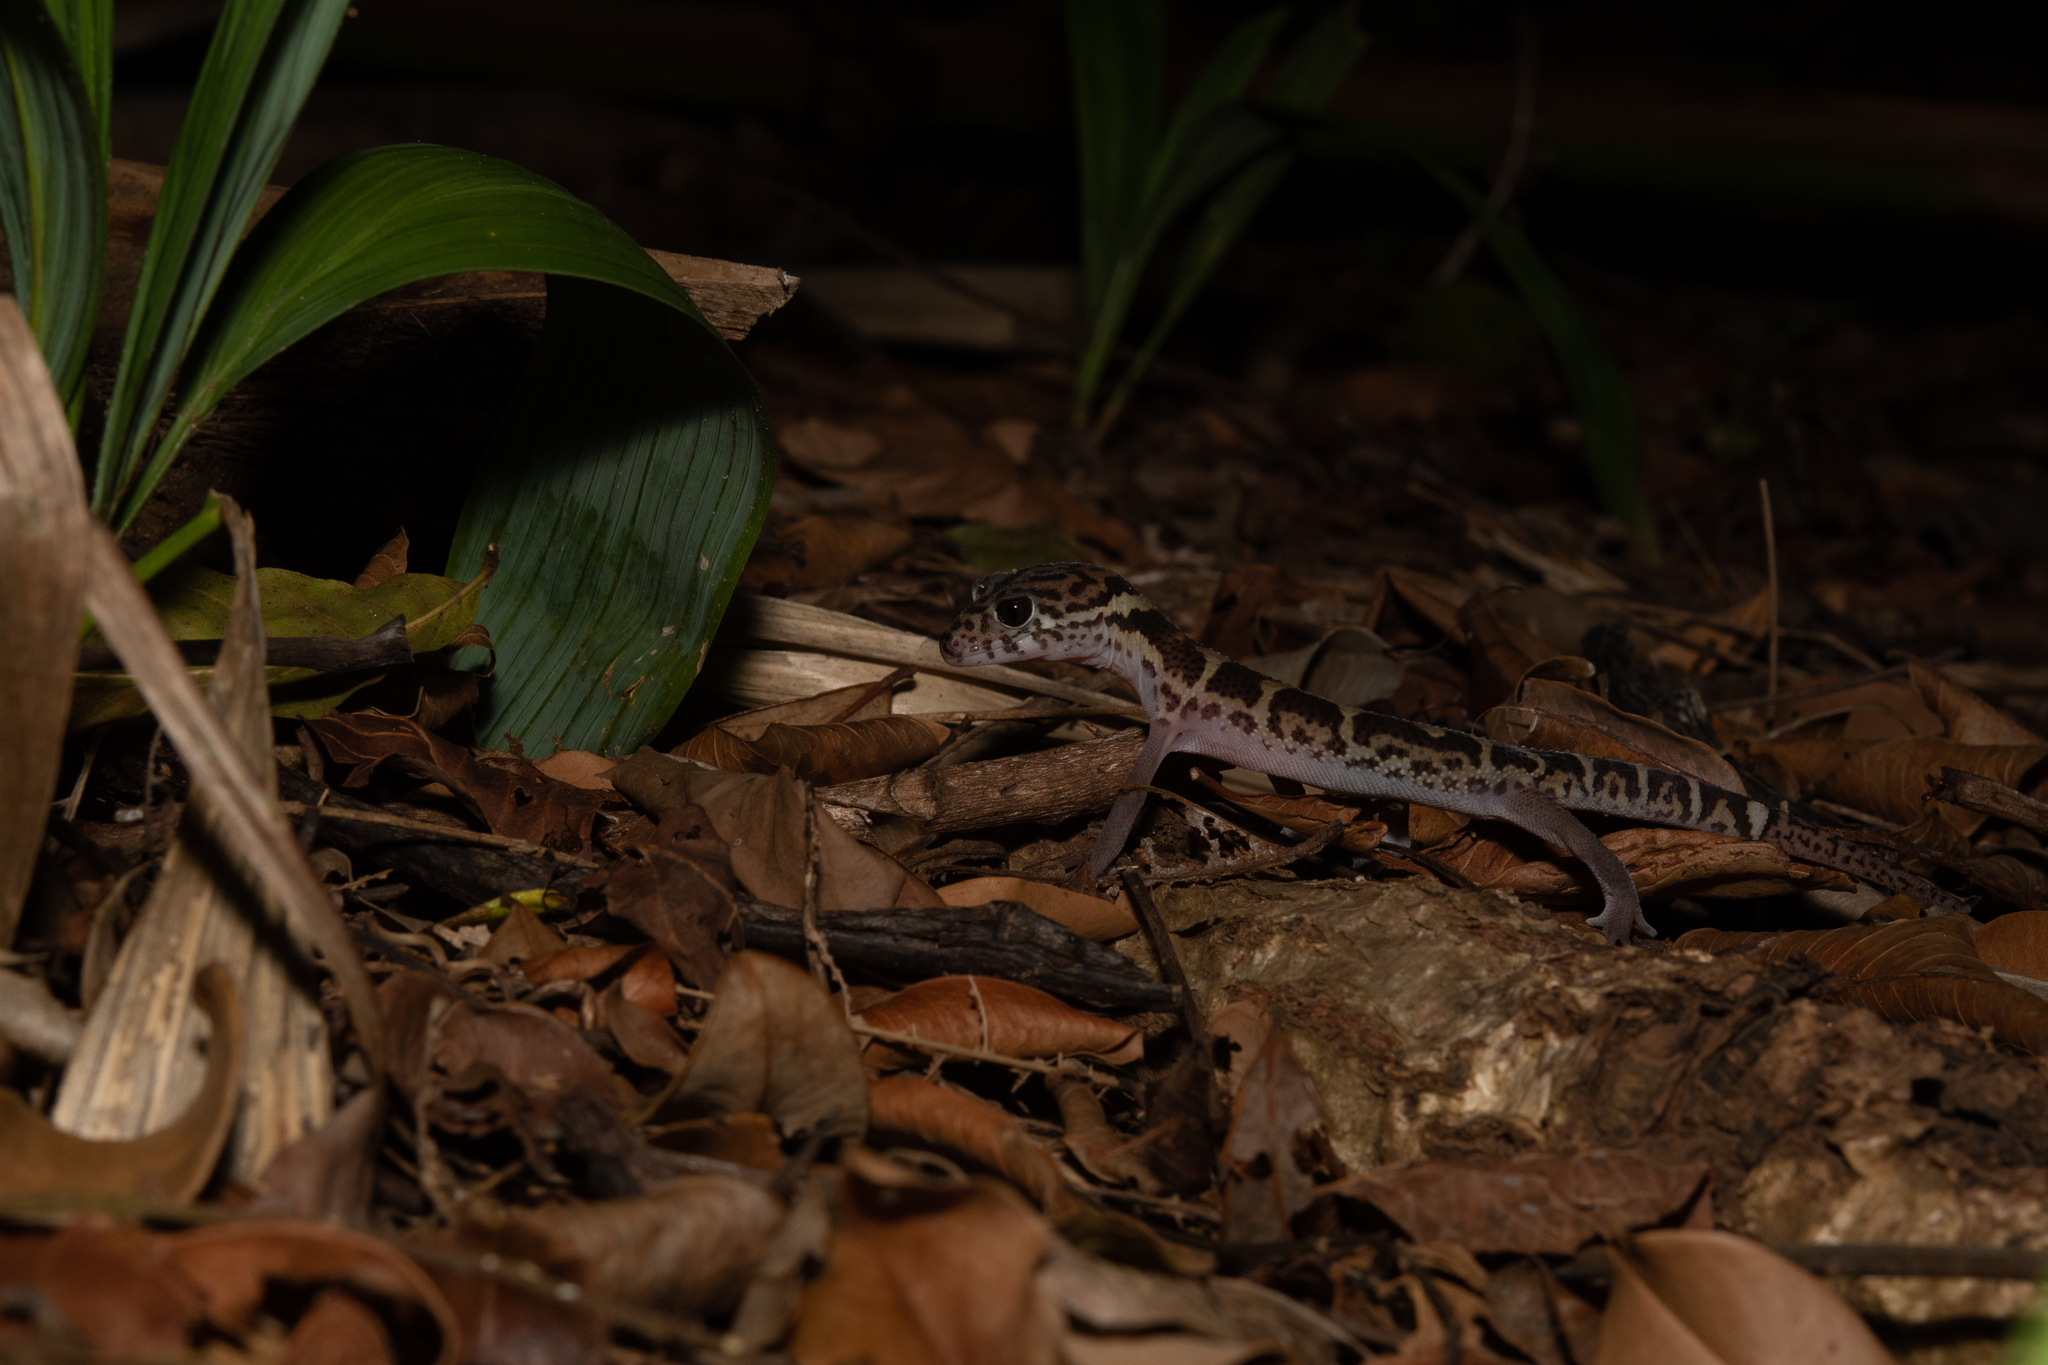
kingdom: Animalia
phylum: Chordata
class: Squamata
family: Eublepharidae
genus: Coleonyx
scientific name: Coleonyx mitratus
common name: Central american banded gecko
